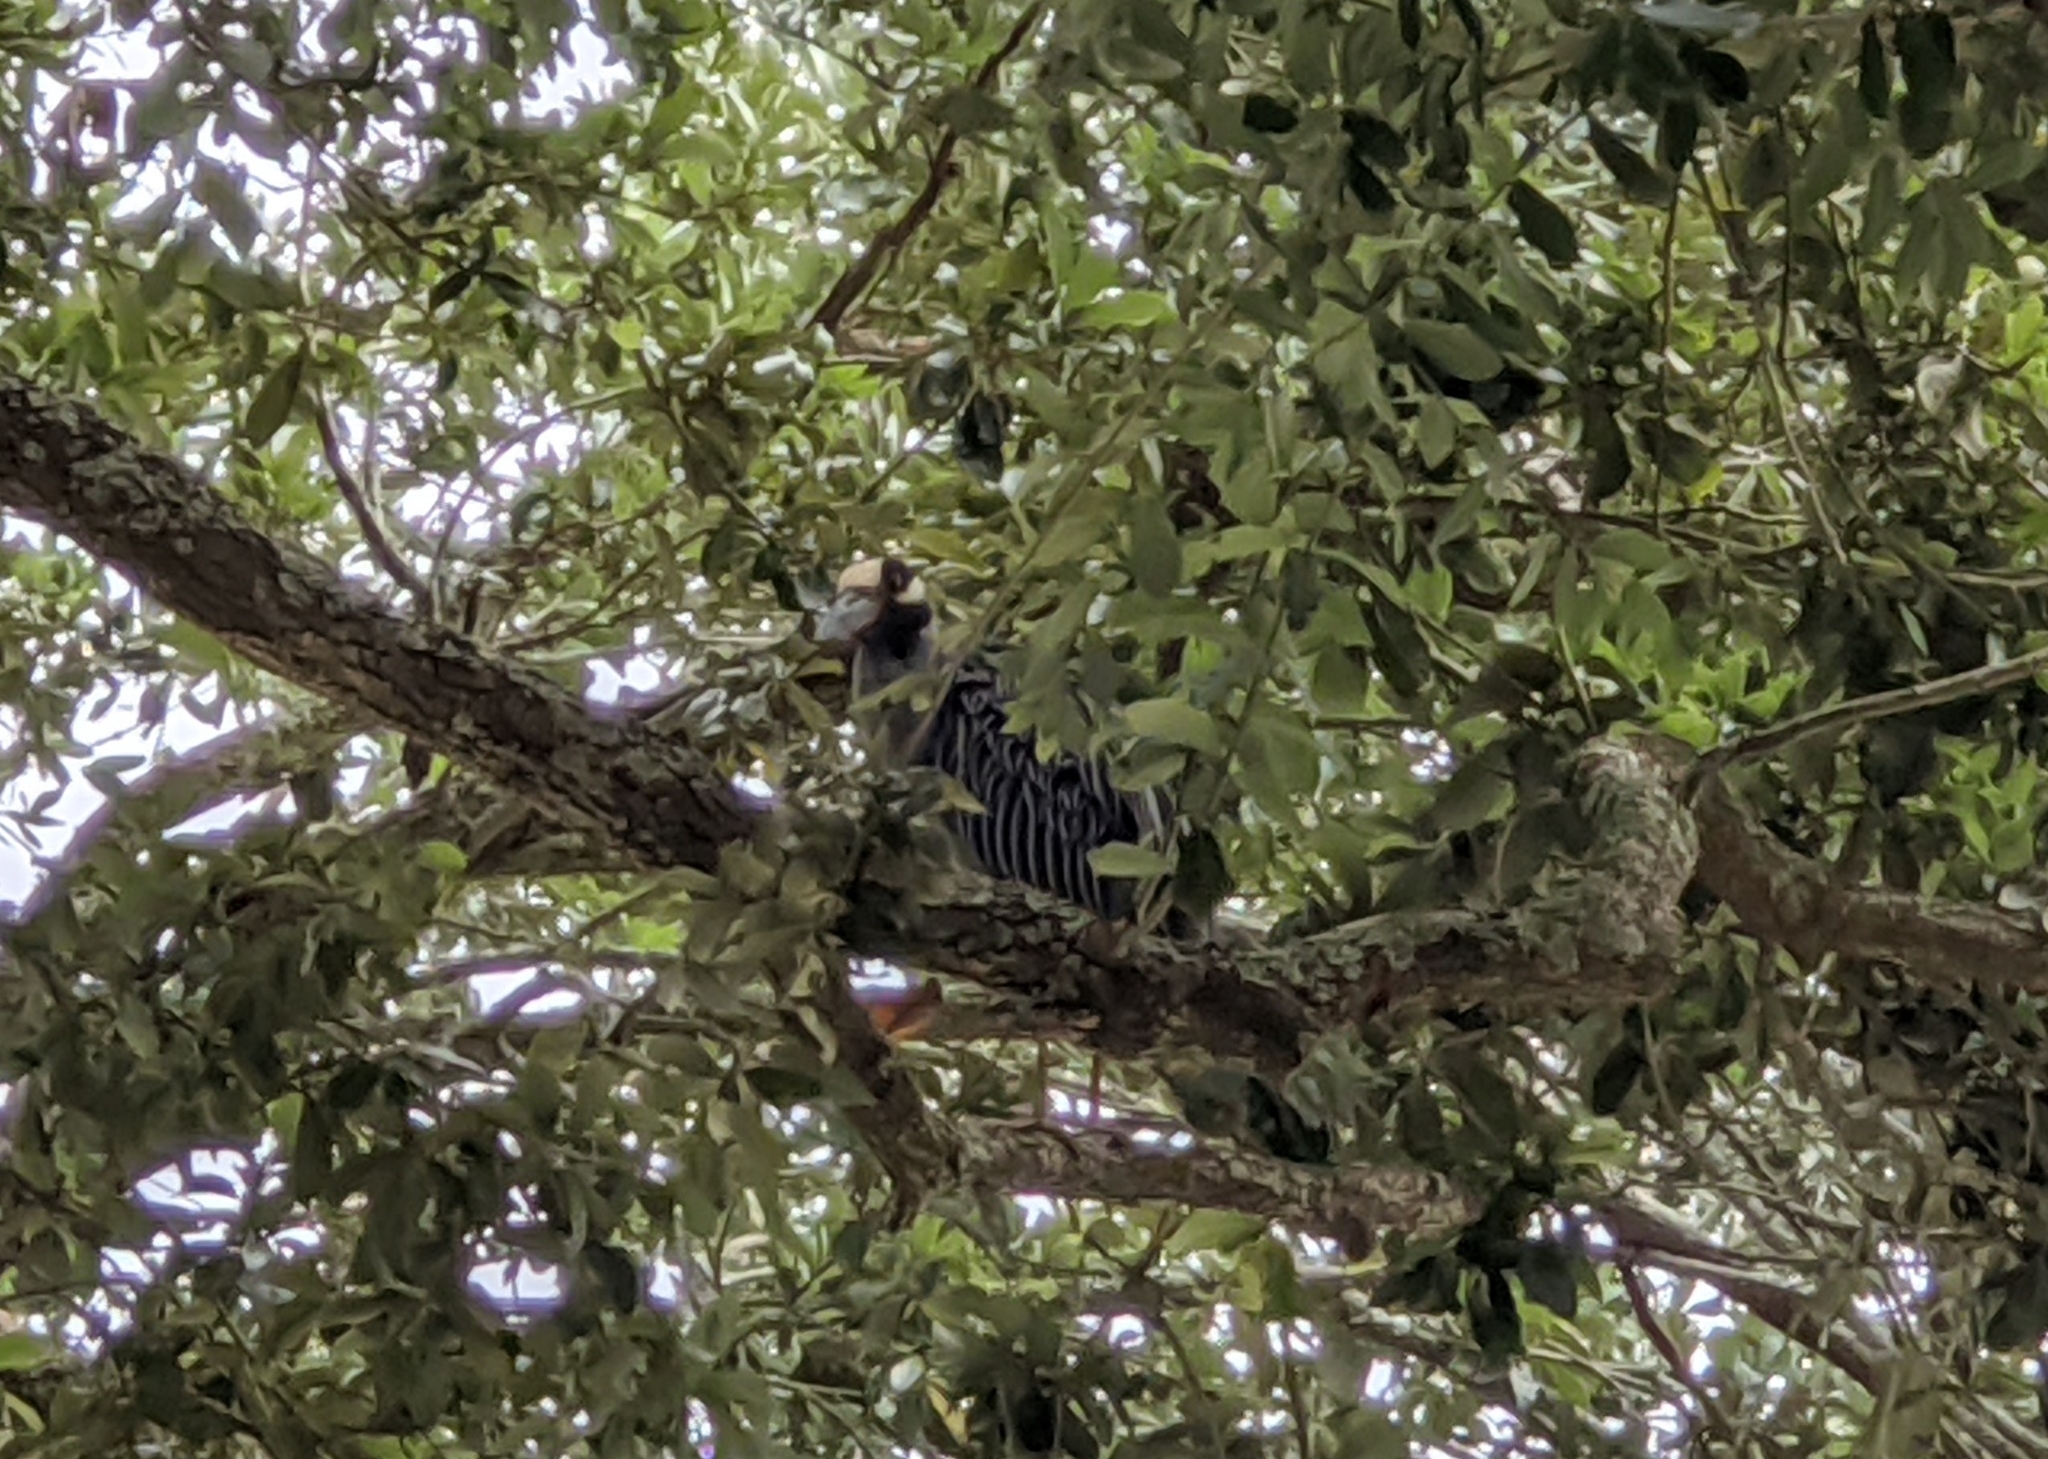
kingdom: Animalia
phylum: Chordata
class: Aves
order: Pelecaniformes
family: Ardeidae
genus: Nyctanassa
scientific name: Nyctanassa violacea
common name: Yellow-crowned night heron
